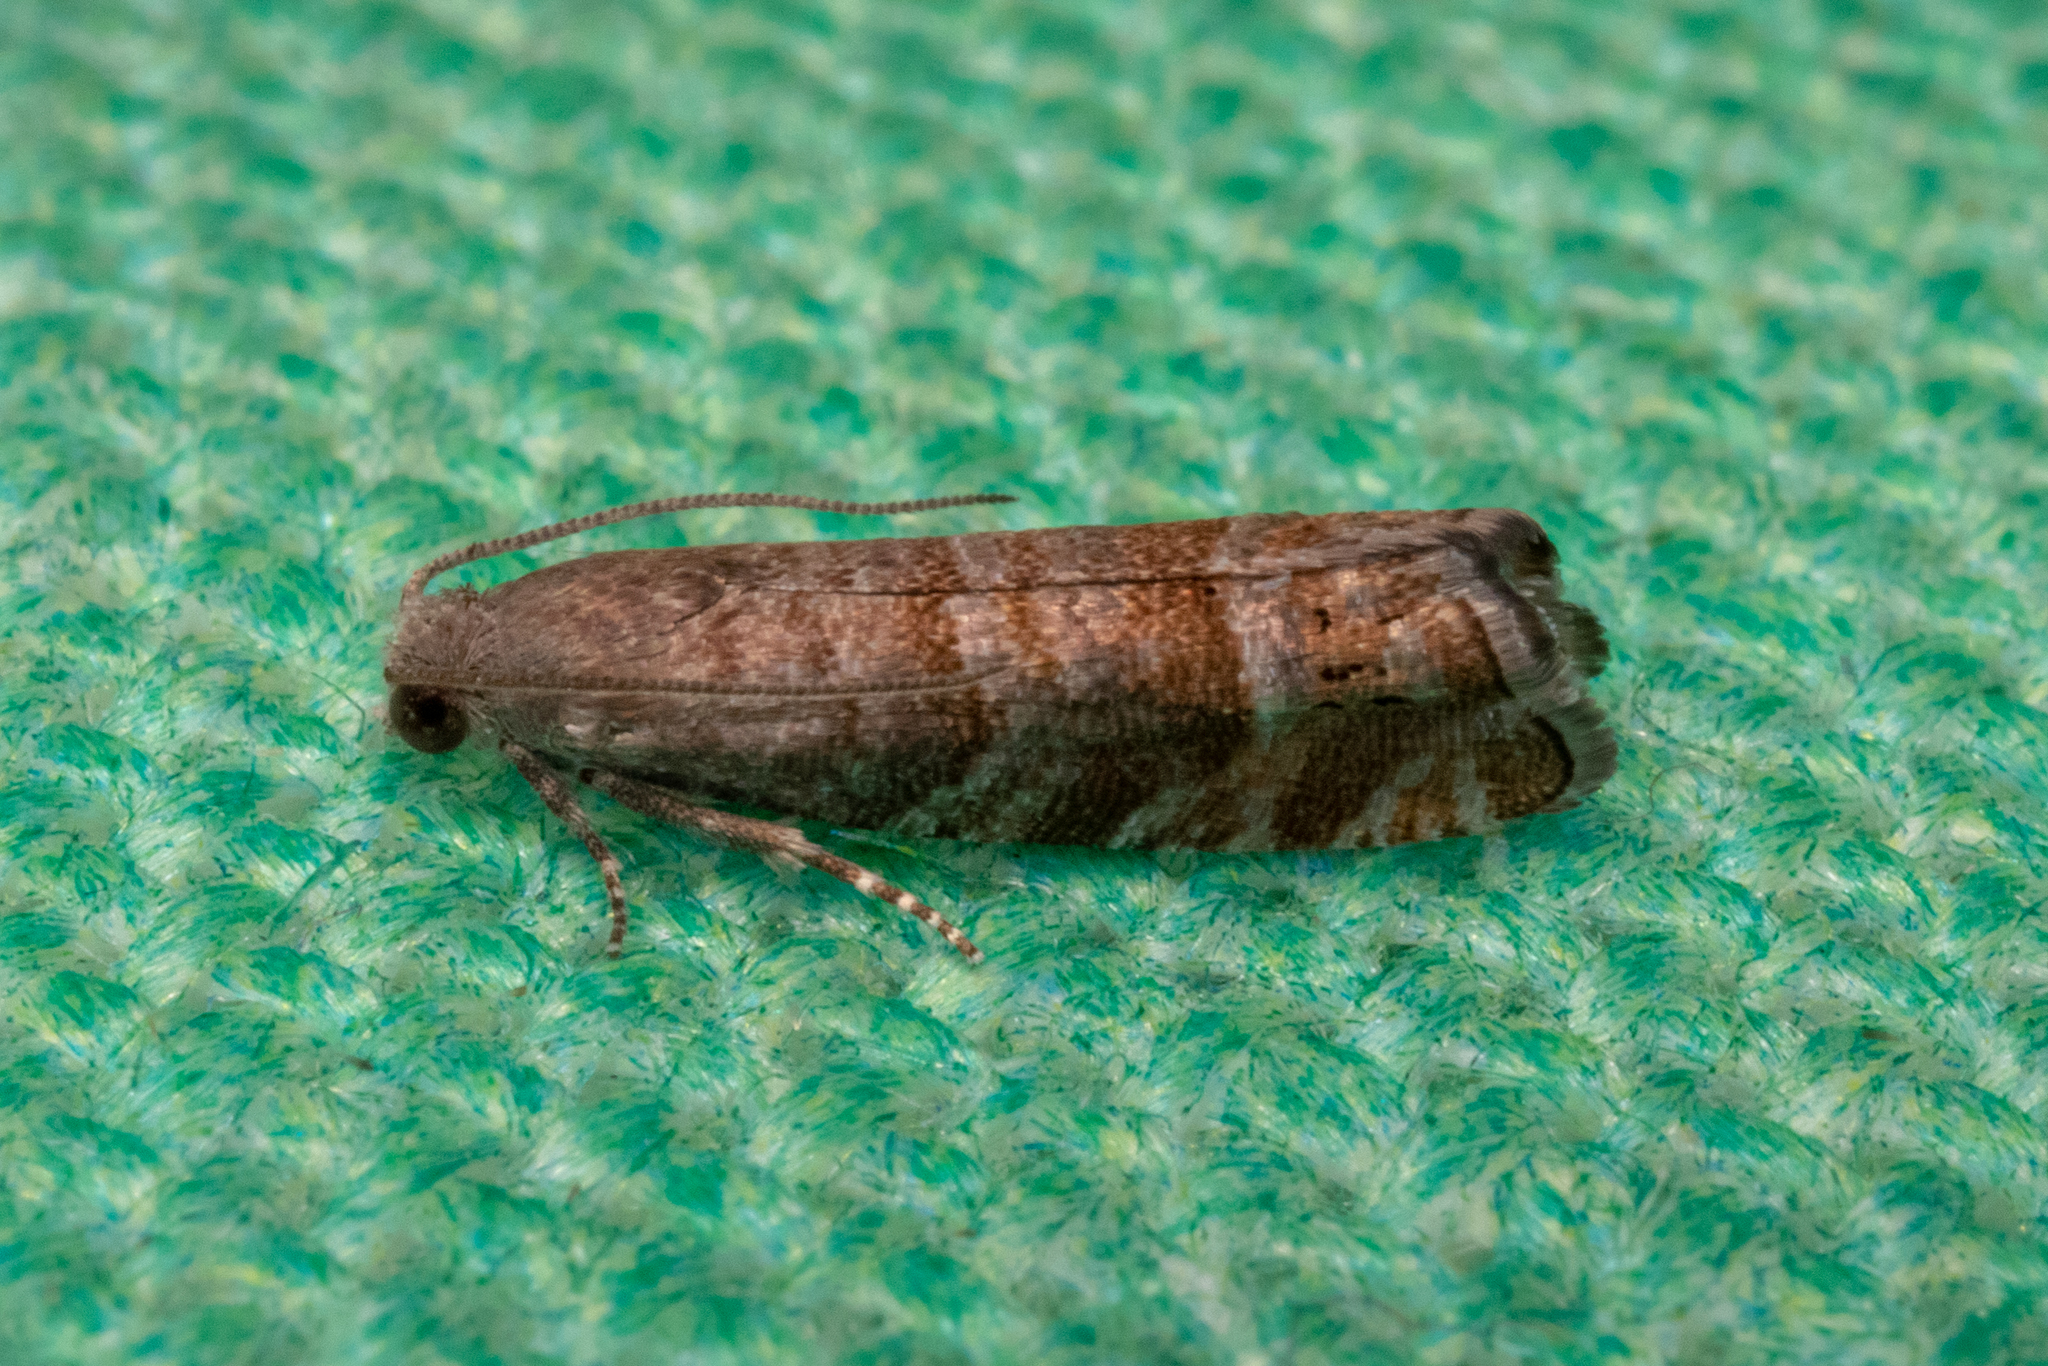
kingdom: Animalia
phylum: Arthropoda
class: Insecta
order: Lepidoptera
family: Tortricidae
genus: Cydia
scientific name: Cydia marita
